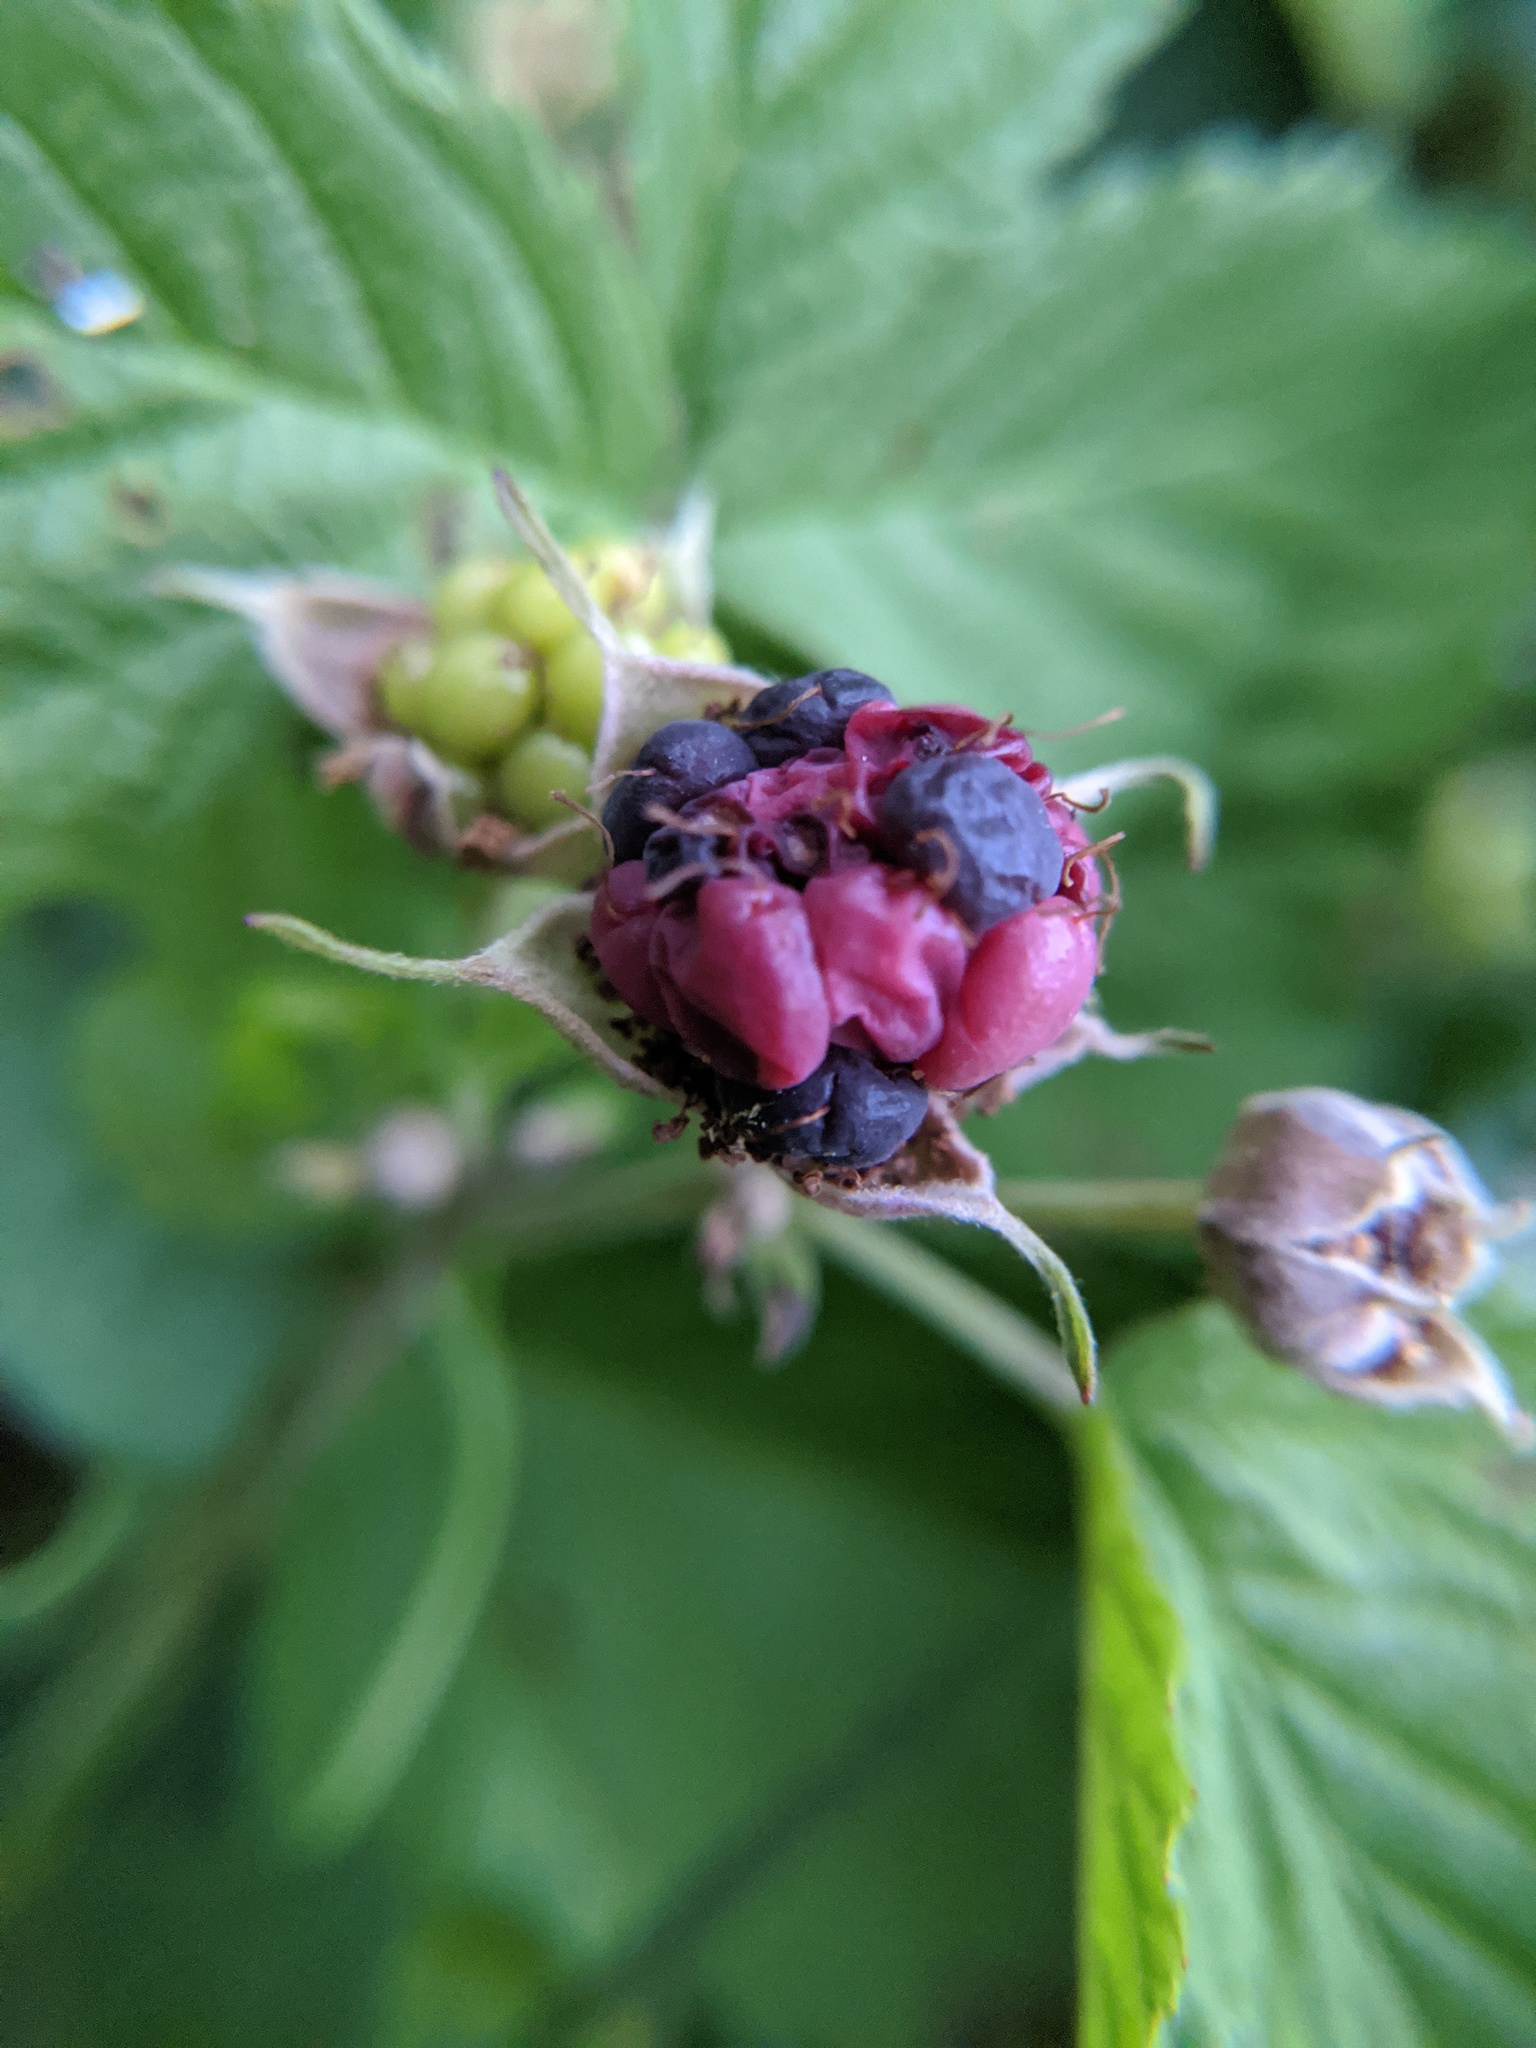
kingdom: Plantae
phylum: Tracheophyta
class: Magnoliopsida
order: Rosales
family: Rosaceae
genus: Rubus
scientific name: Rubus caesius
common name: Dewberry
